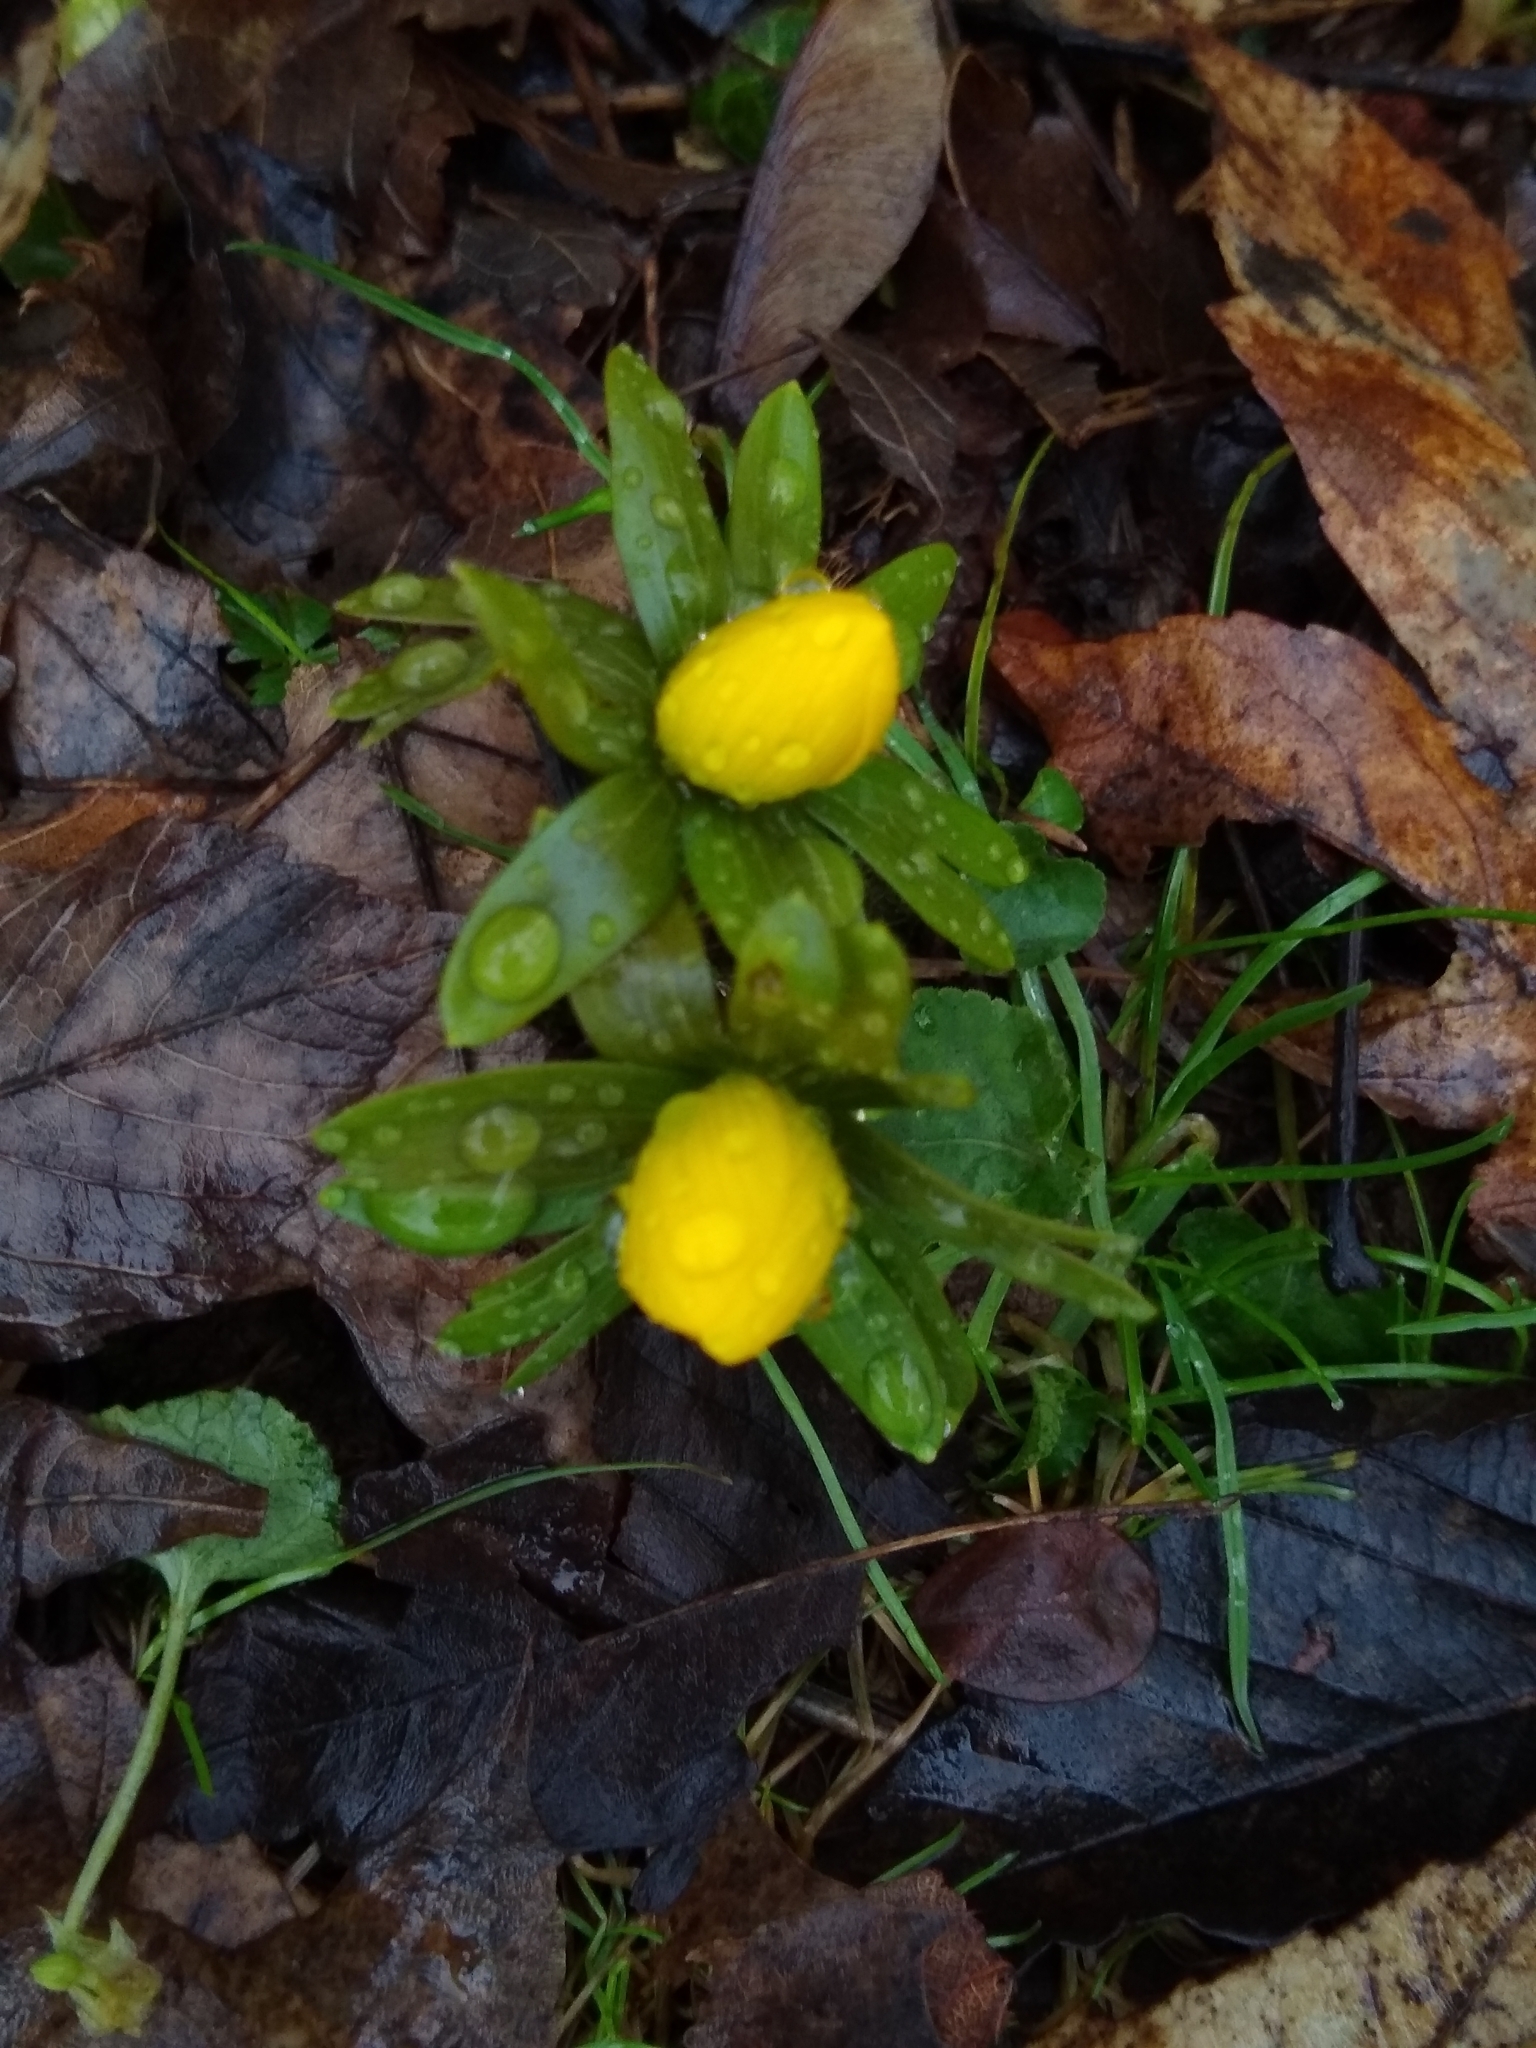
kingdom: Plantae
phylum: Tracheophyta
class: Magnoliopsida
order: Ranunculales
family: Ranunculaceae
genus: Eranthis
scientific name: Eranthis hyemalis
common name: Winter aconite
